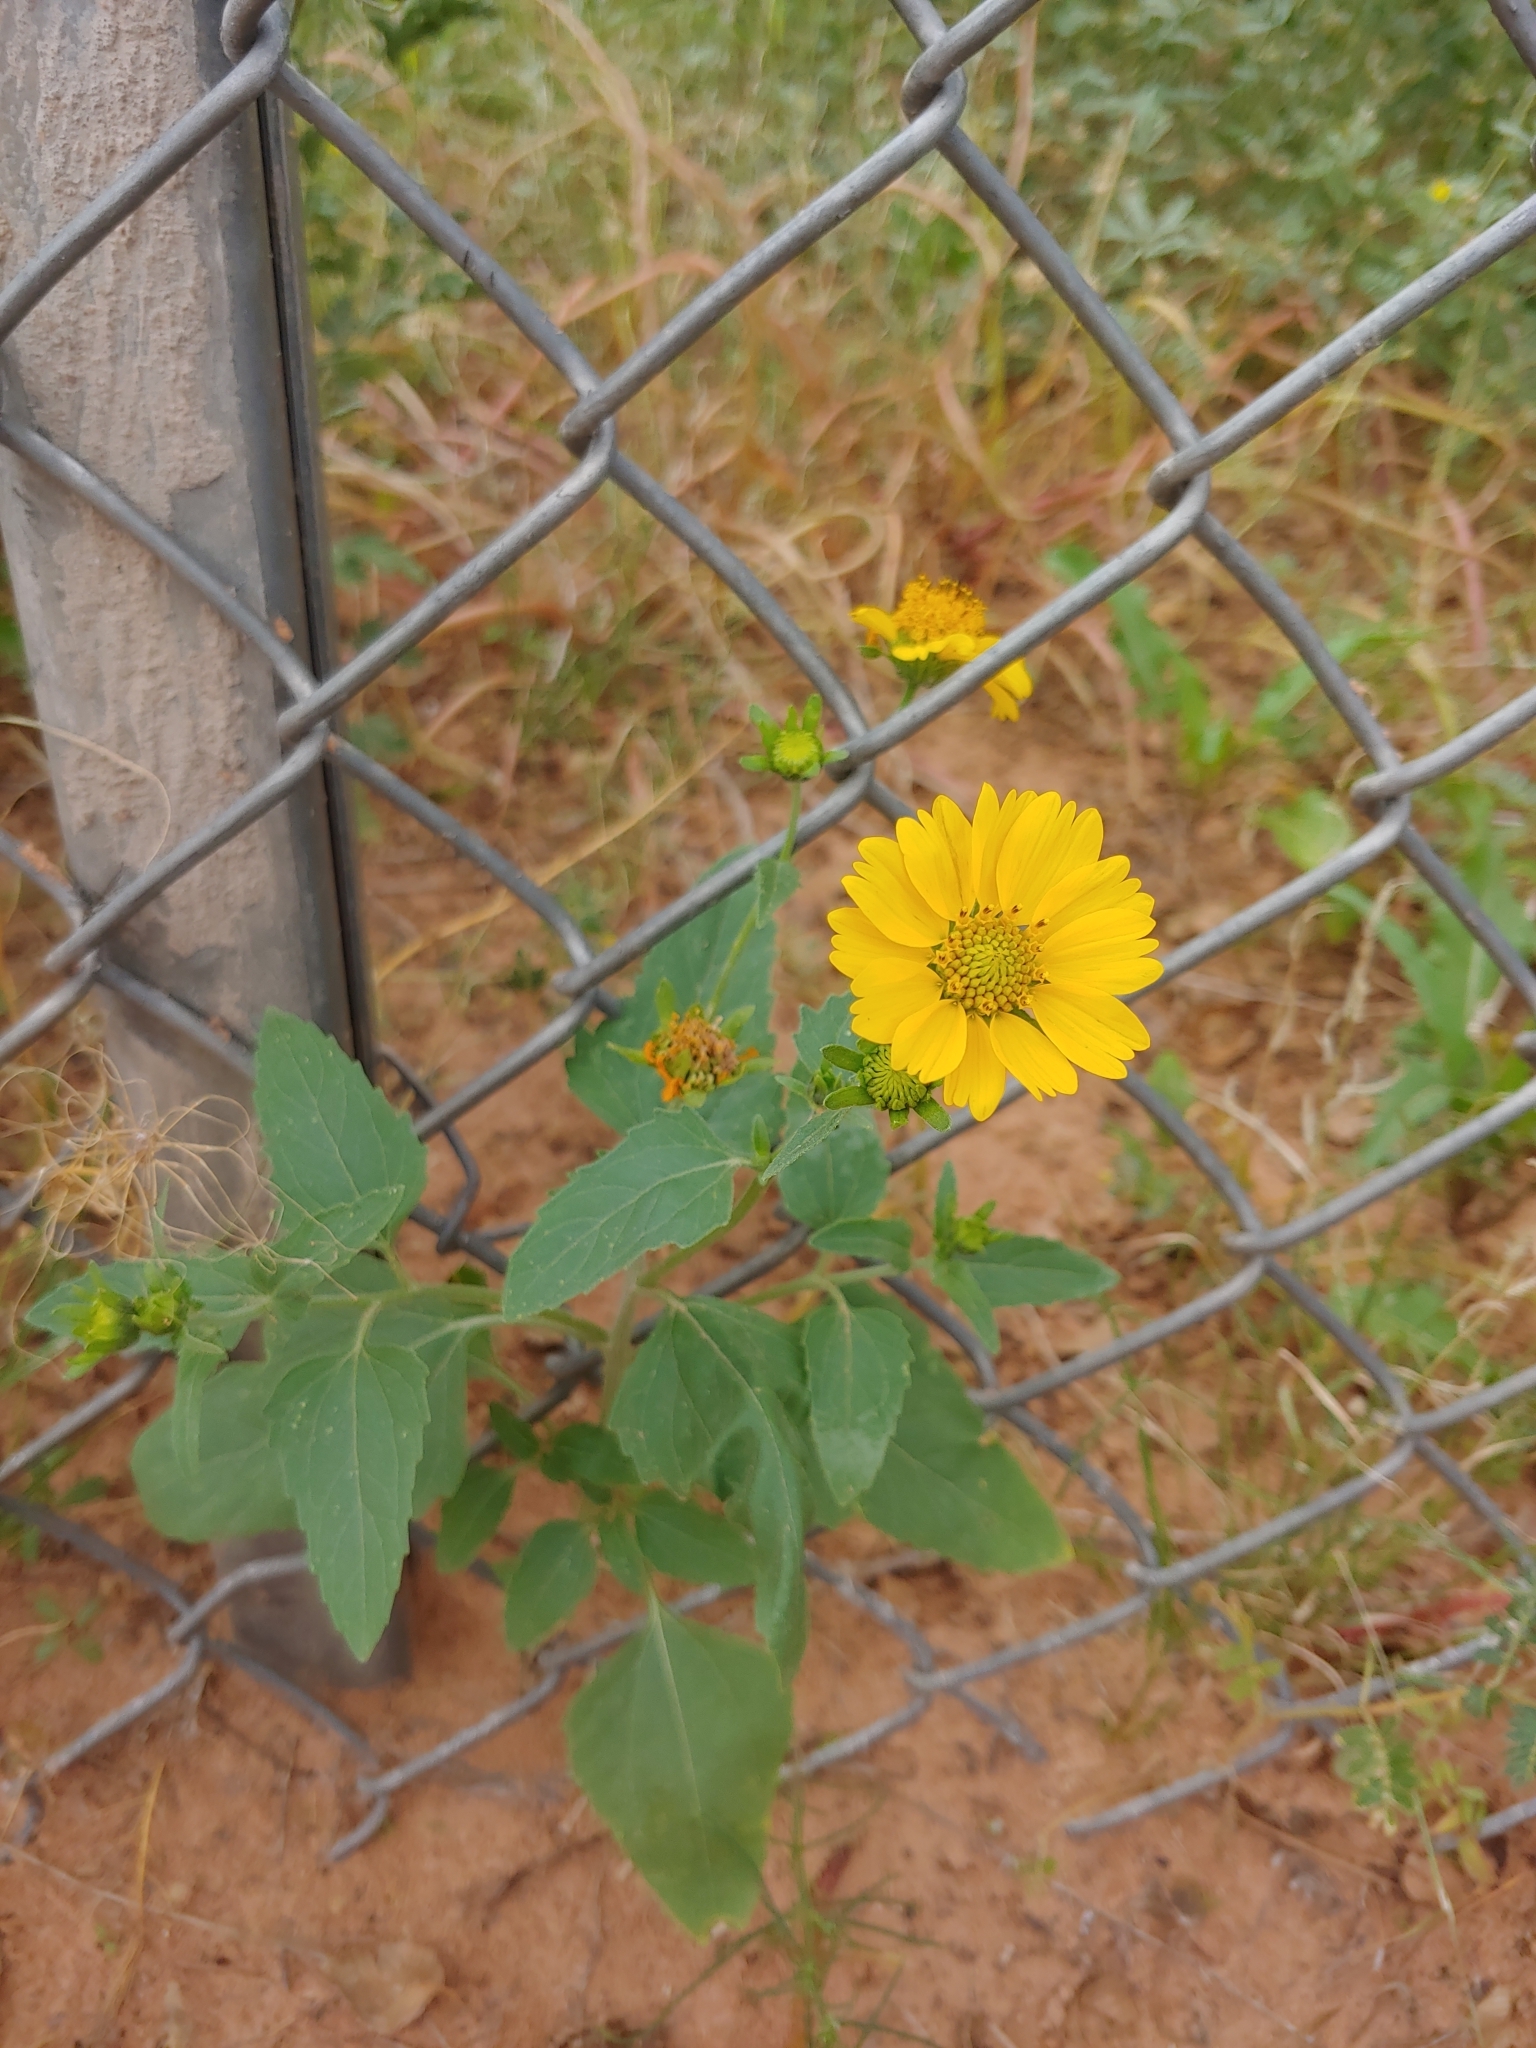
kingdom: Plantae
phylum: Tracheophyta
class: Magnoliopsida
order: Asterales
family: Asteraceae
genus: Verbesina
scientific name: Verbesina encelioides
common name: Golden crownbeard
